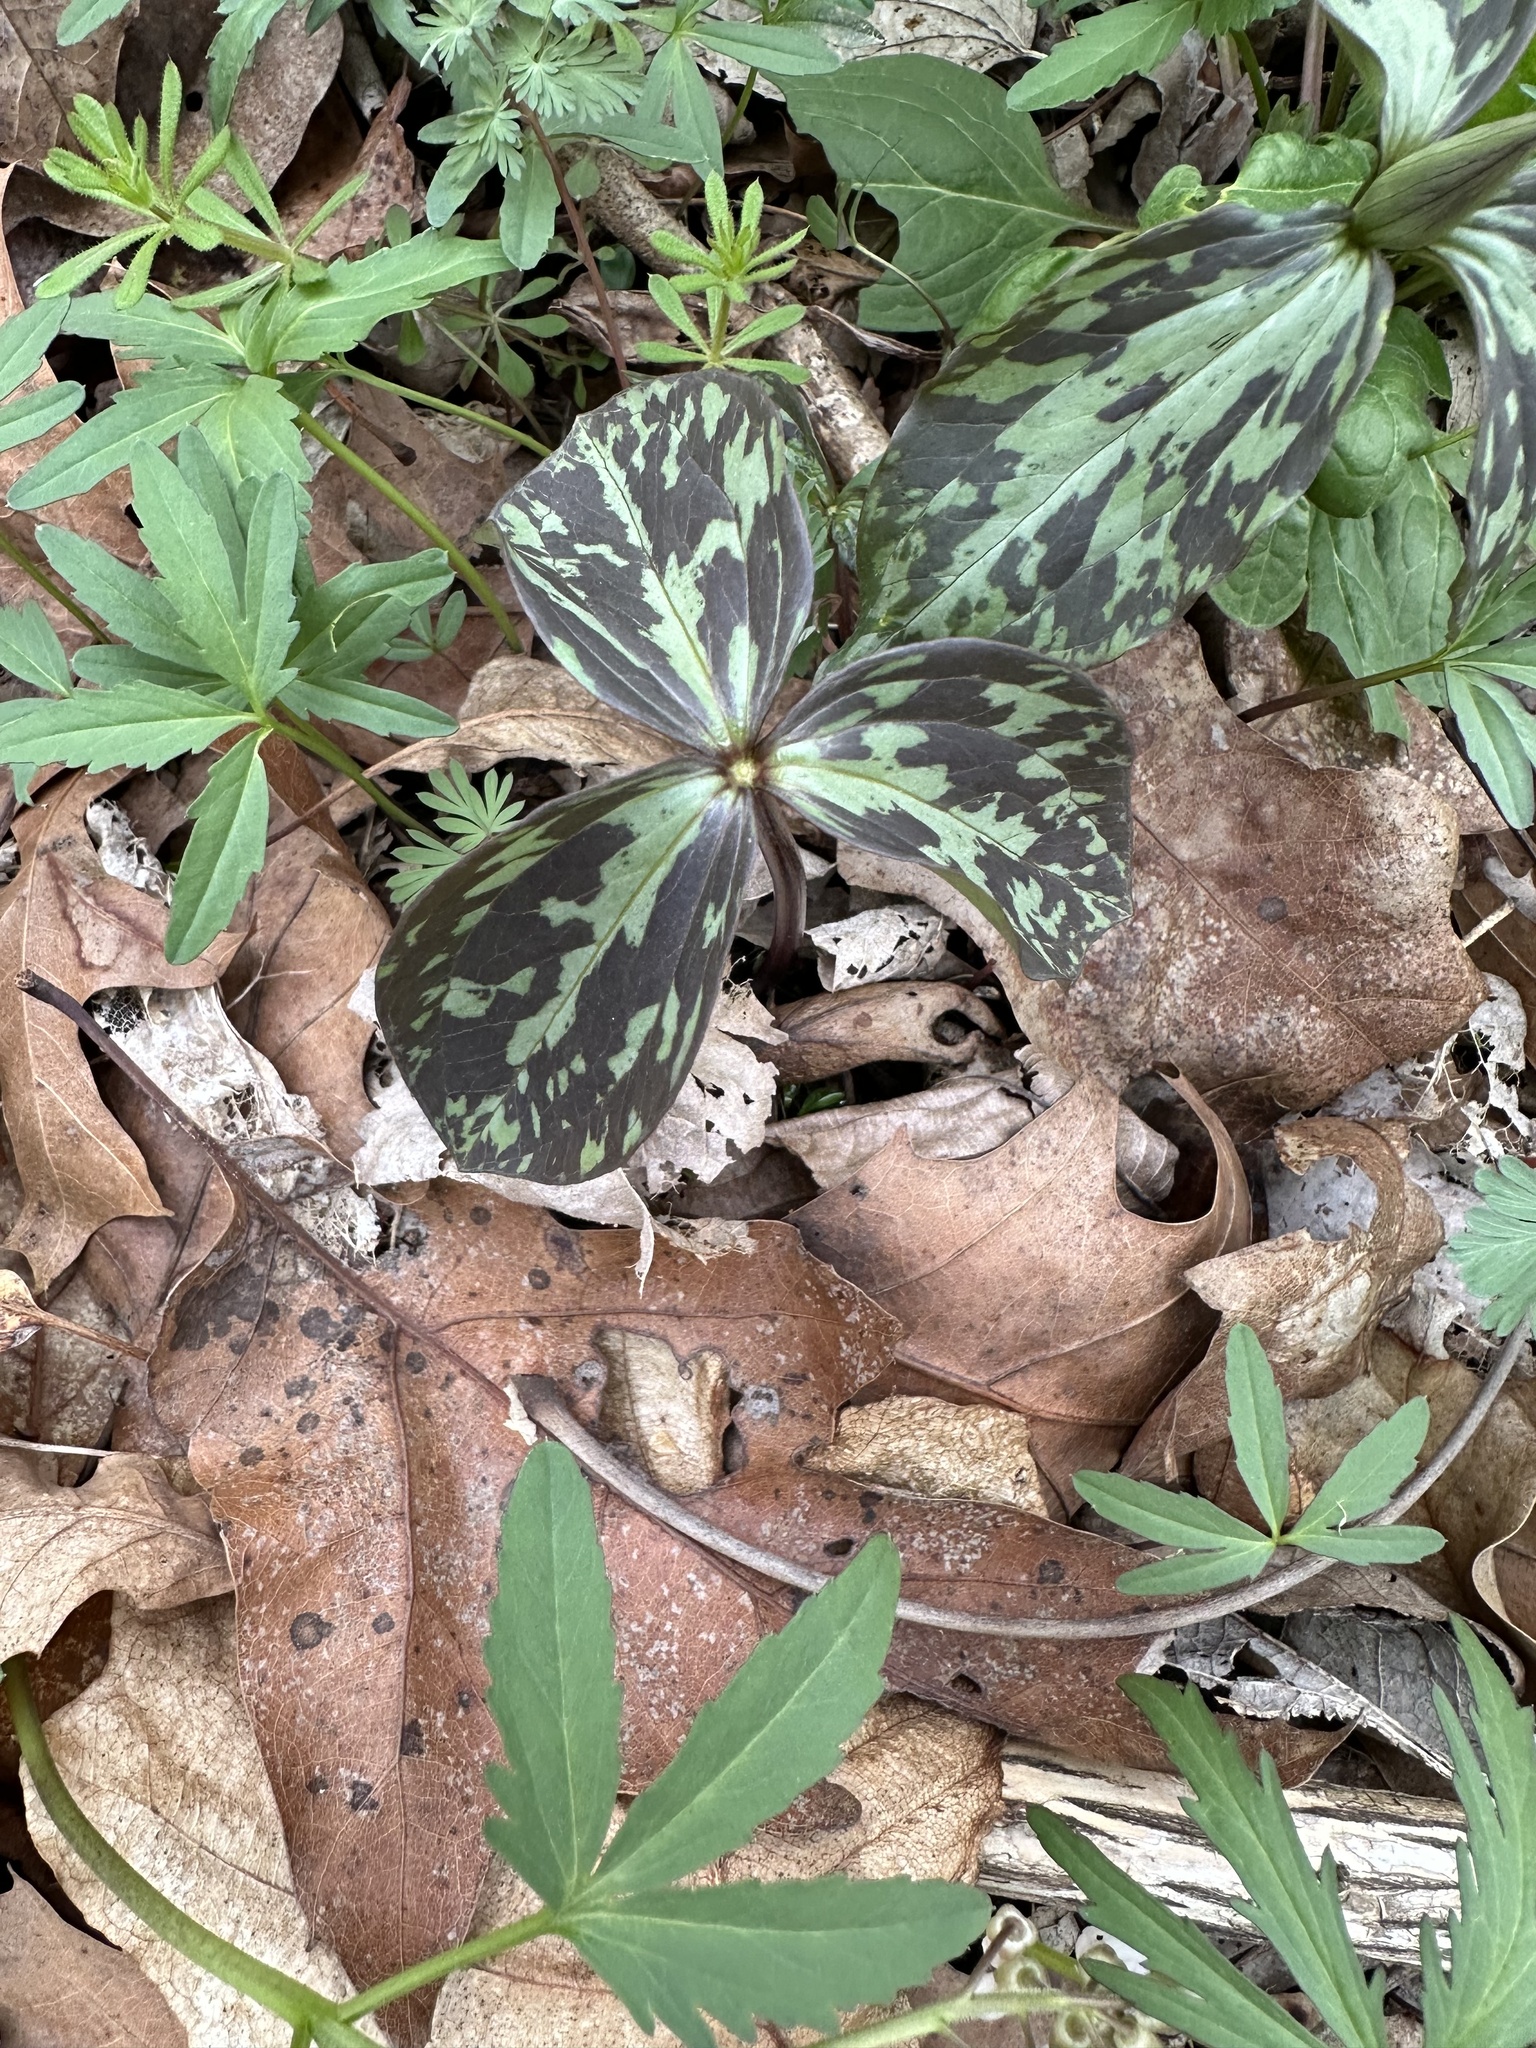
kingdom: Plantae
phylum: Tracheophyta
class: Liliopsida
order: Liliales
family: Melanthiaceae
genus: Trillium
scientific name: Trillium recurvatum
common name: Bloody butcher
